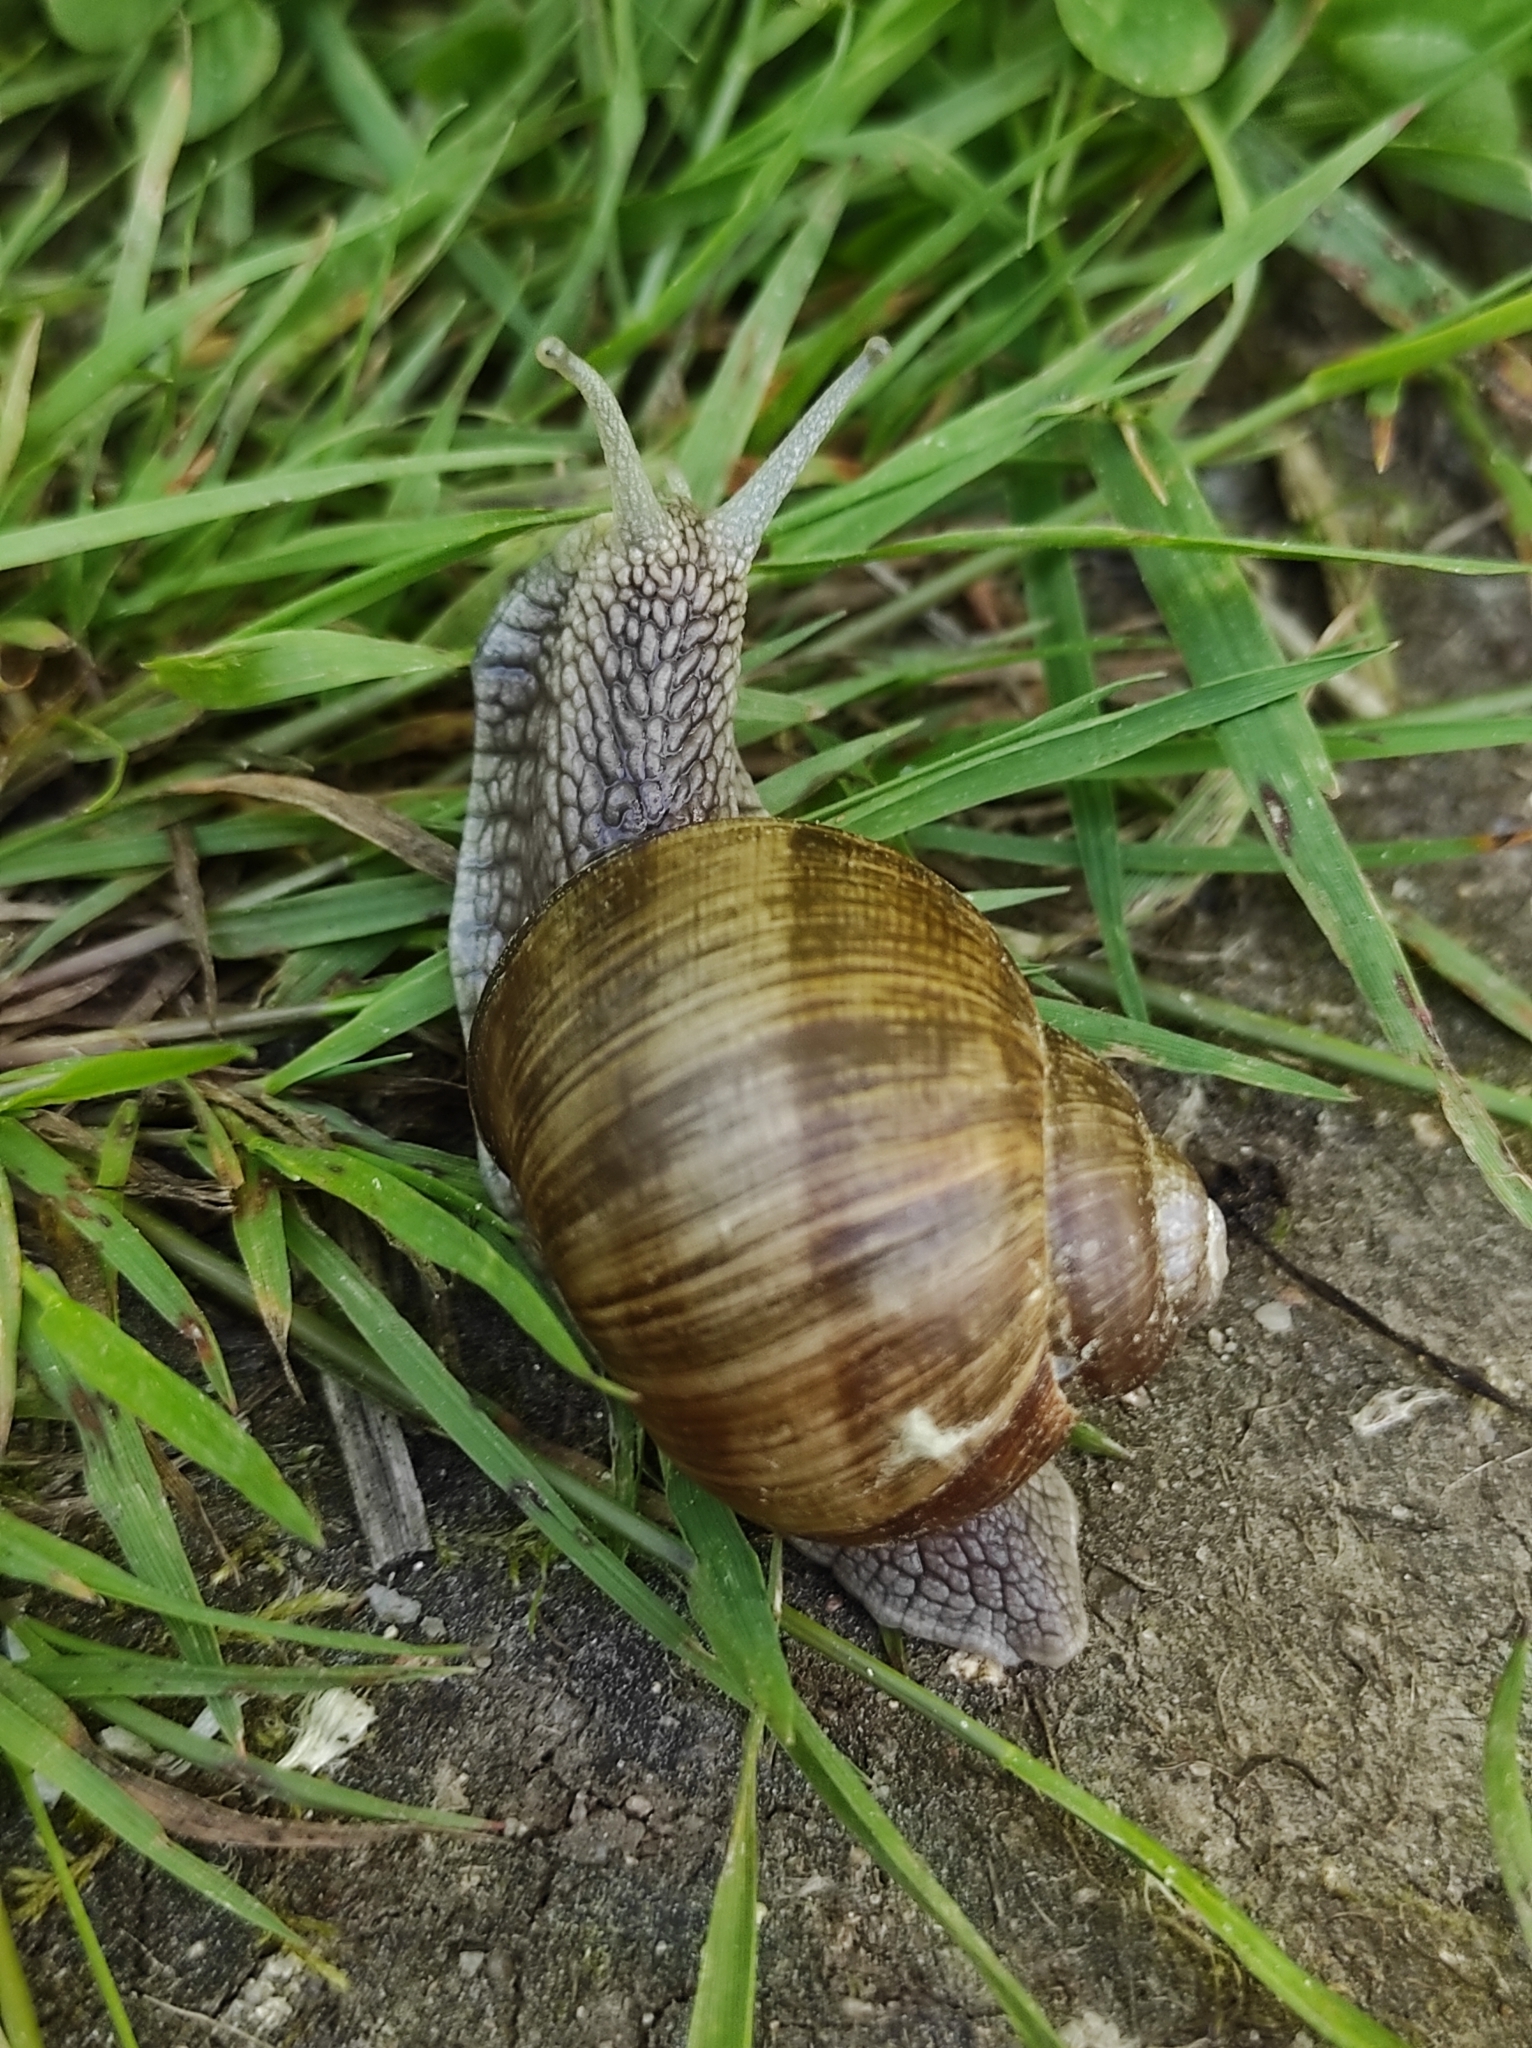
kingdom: Animalia
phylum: Mollusca
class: Gastropoda
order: Stylommatophora
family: Helicidae
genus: Helix
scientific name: Helix pomatia
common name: Roman snail
